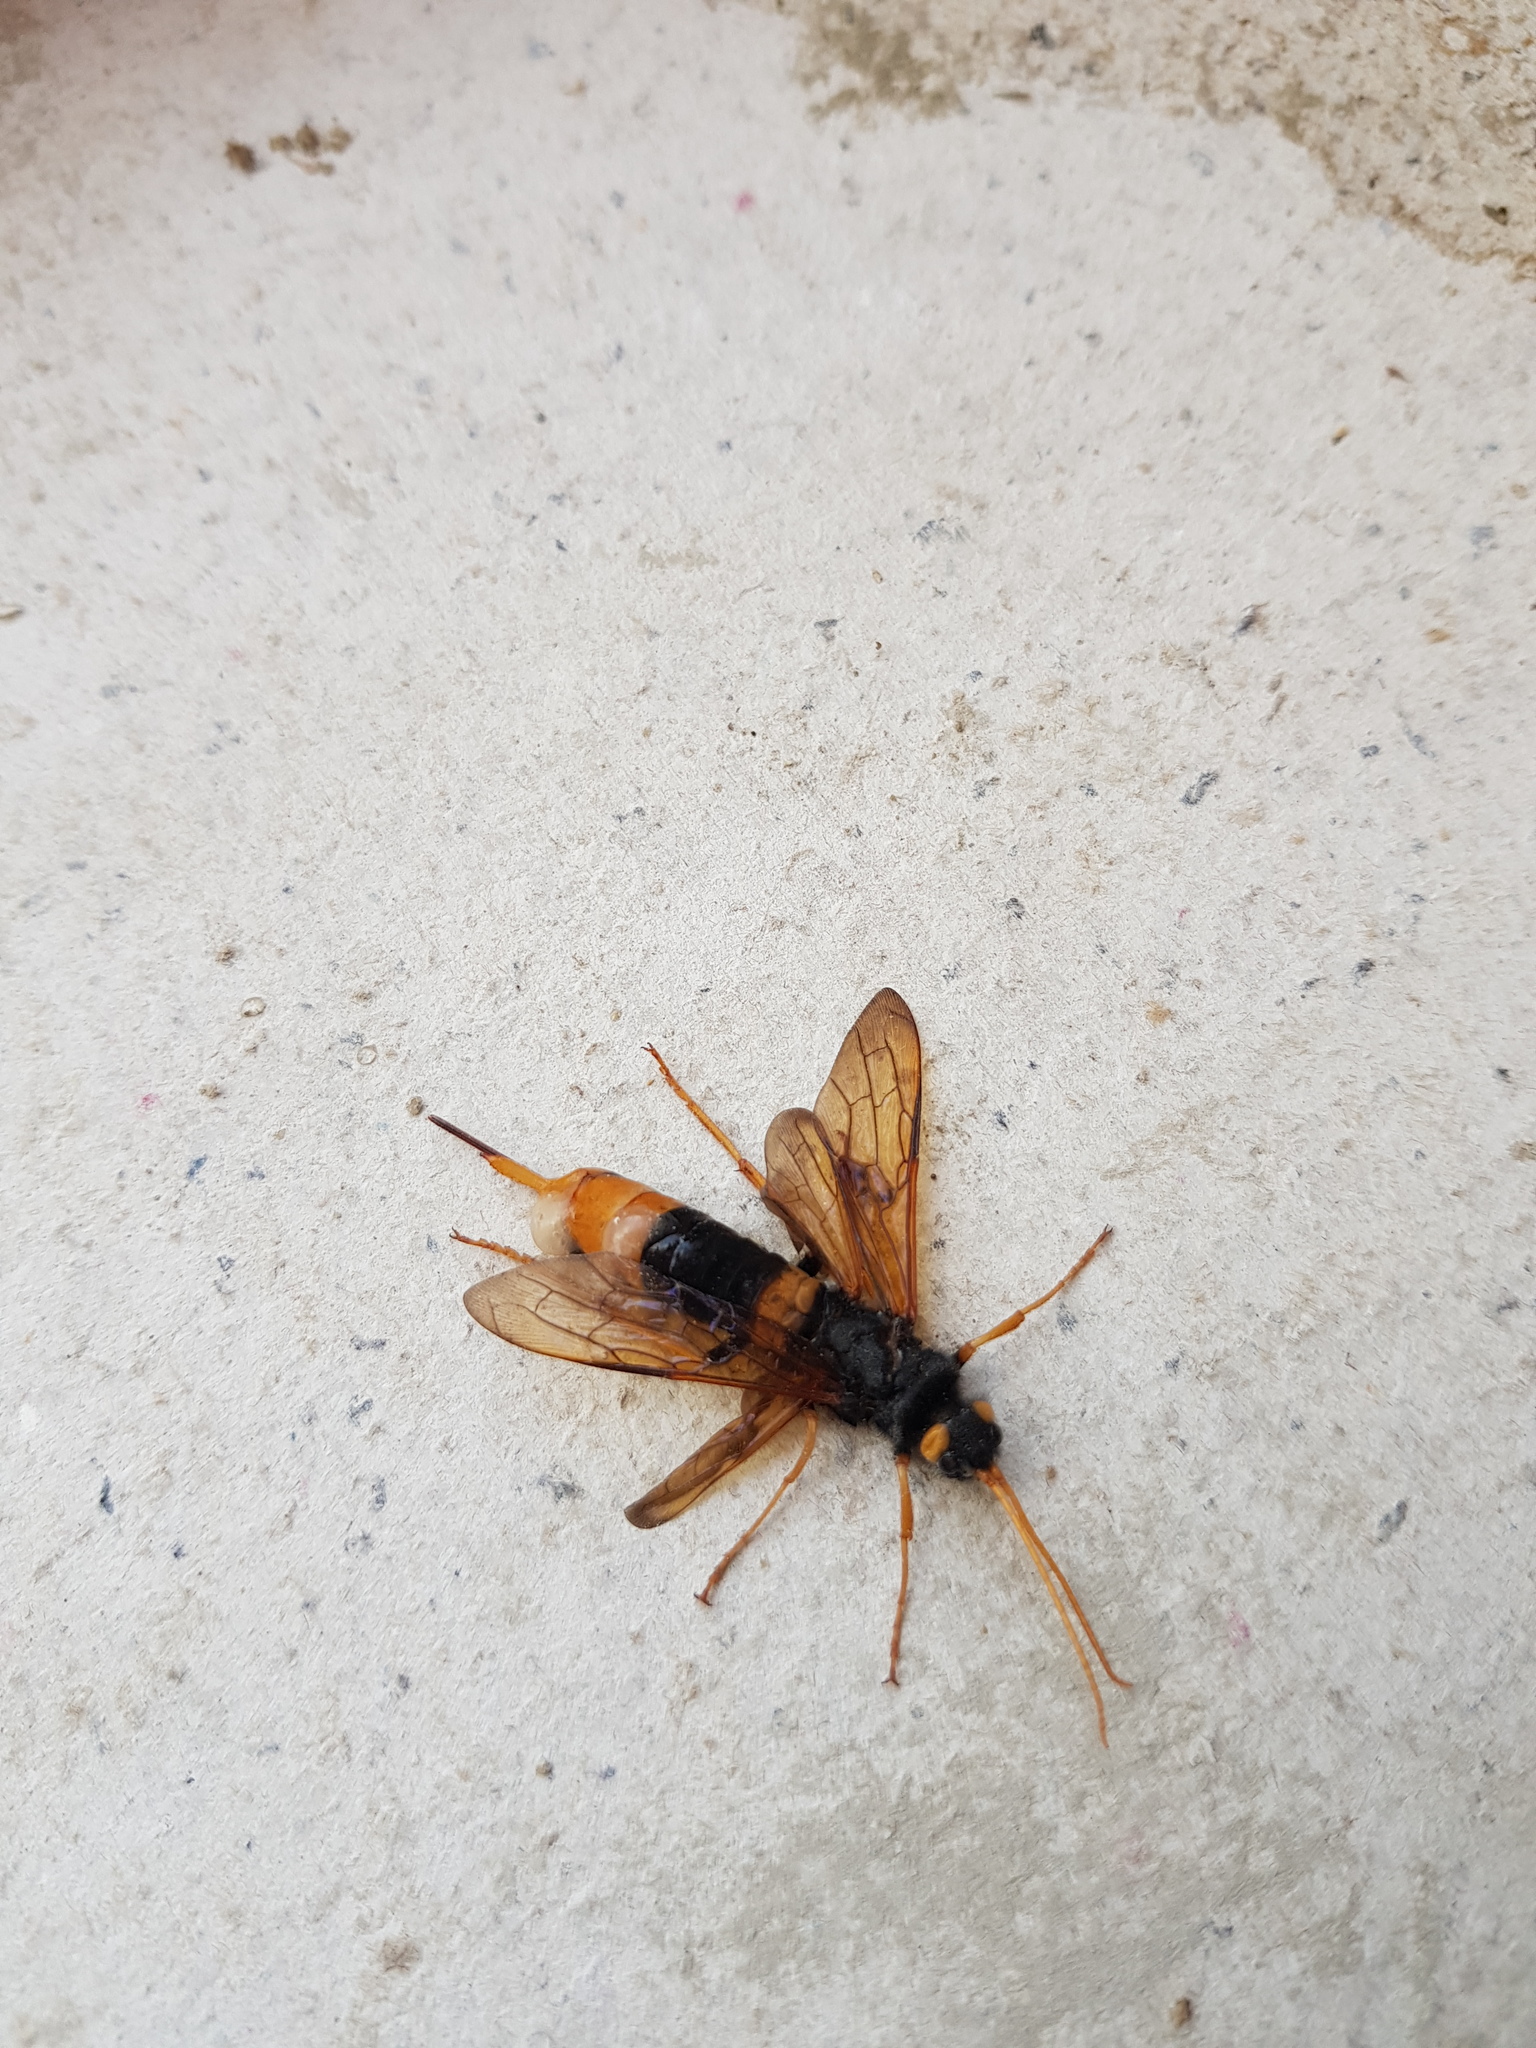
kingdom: Animalia
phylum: Arthropoda
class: Insecta
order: Hymenoptera
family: Siricidae
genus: Urocerus
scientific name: Urocerus gigas
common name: Giant woodwasp
